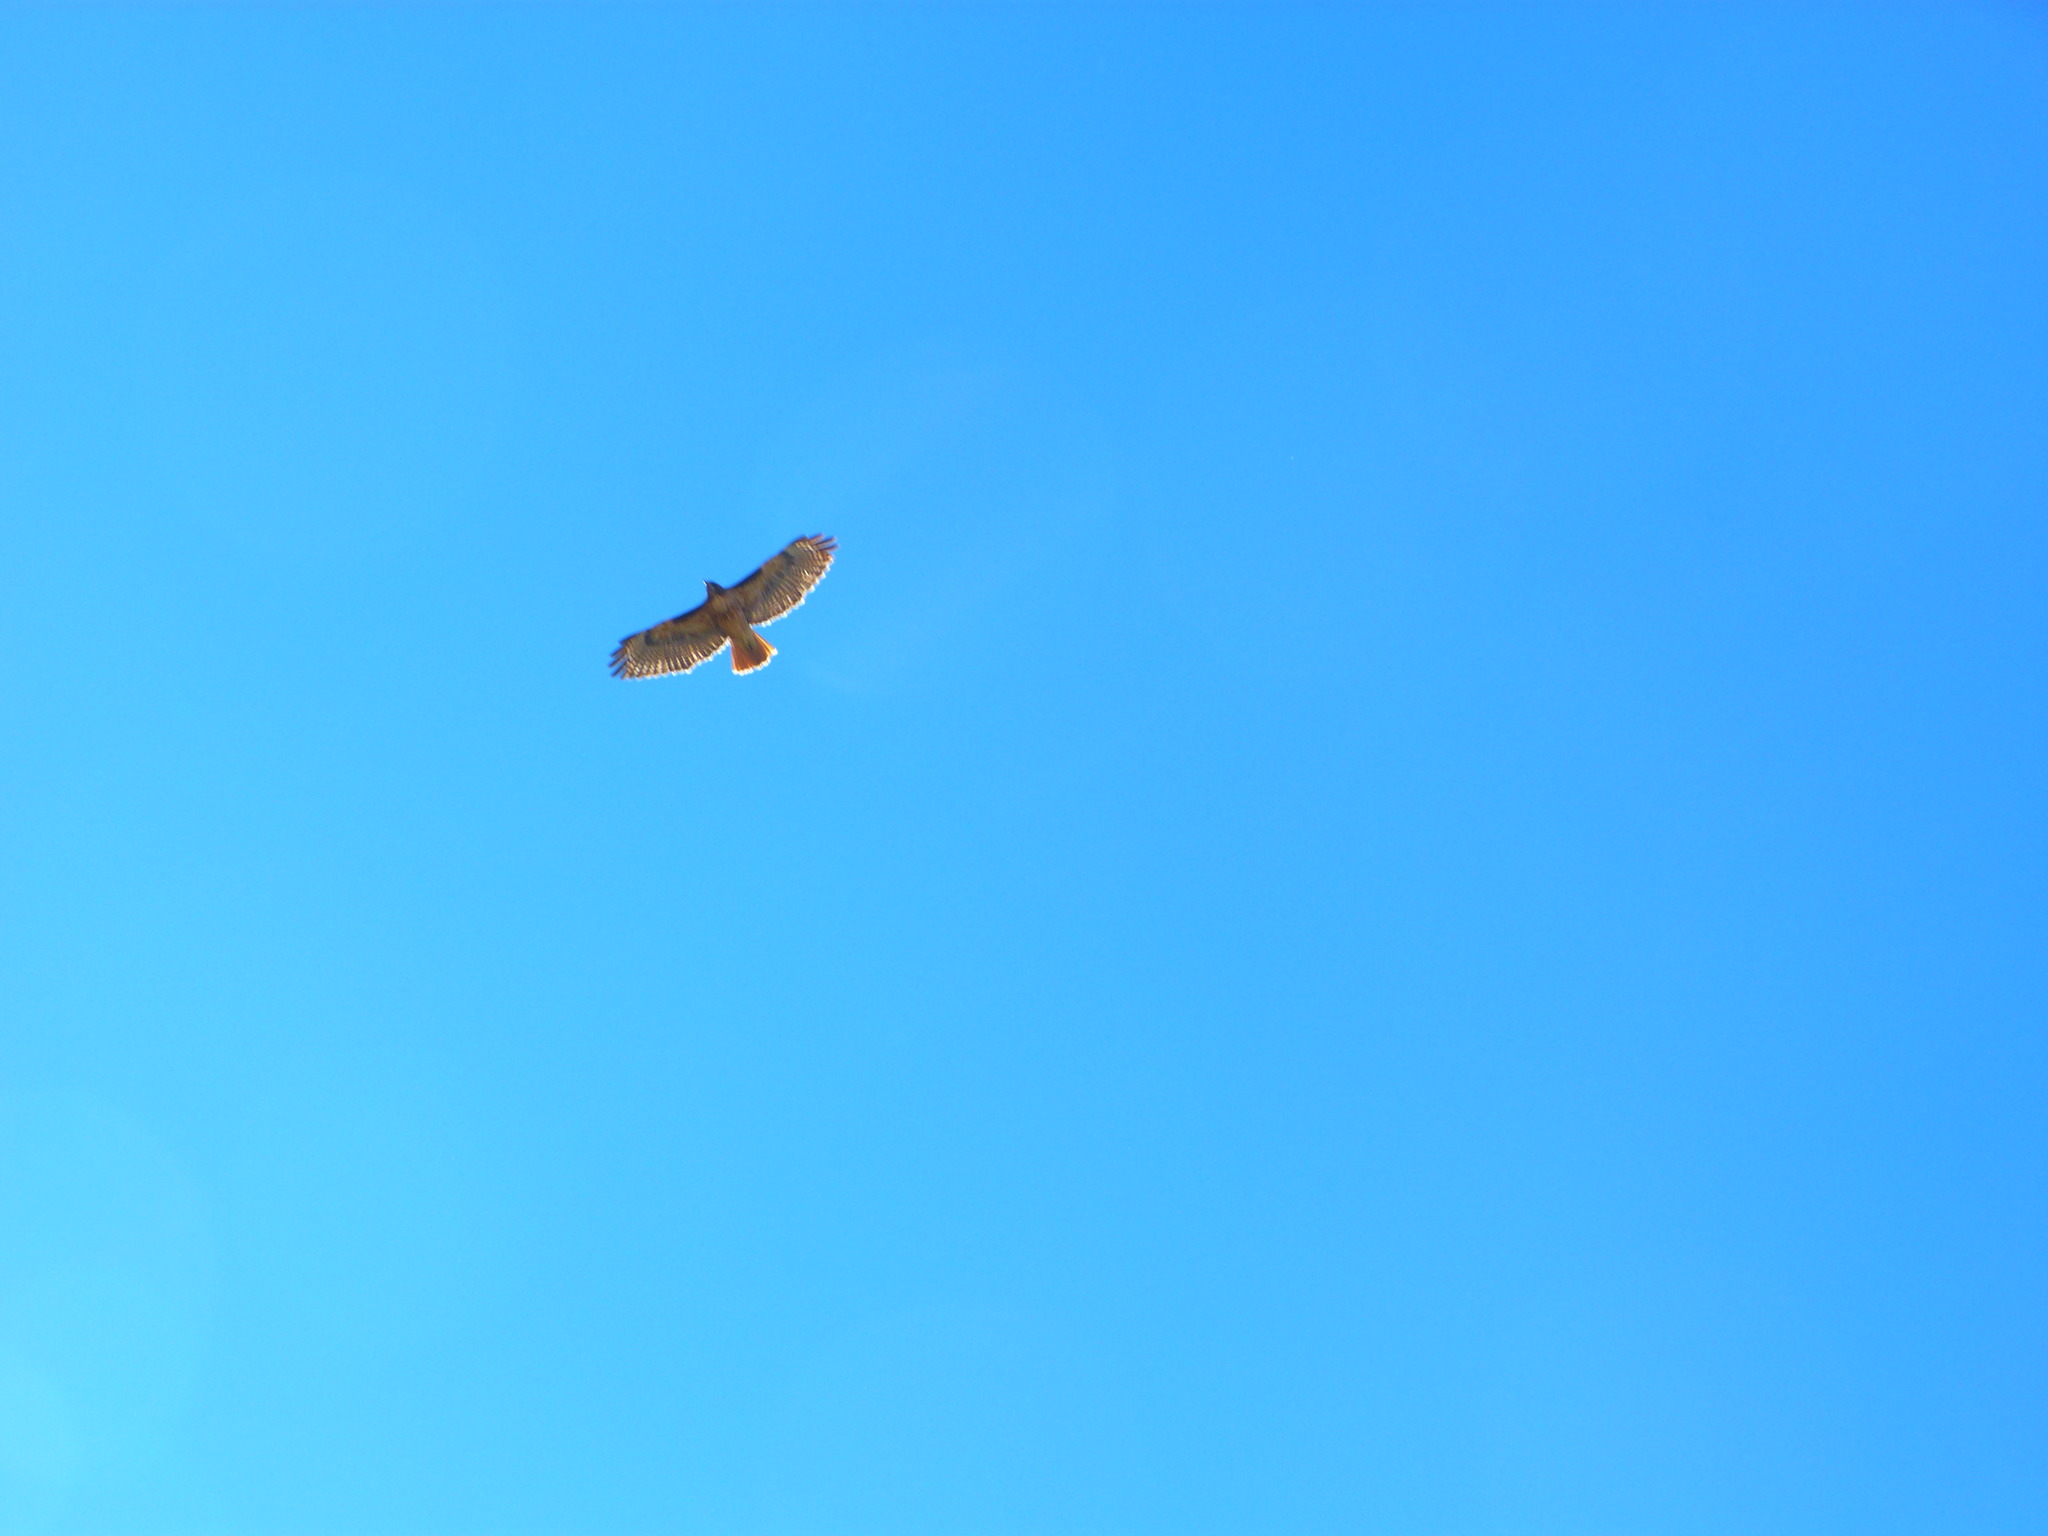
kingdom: Animalia
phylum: Chordata
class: Aves
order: Accipitriformes
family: Accipitridae
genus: Buteo
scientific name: Buteo jamaicensis
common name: Red-tailed hawk
